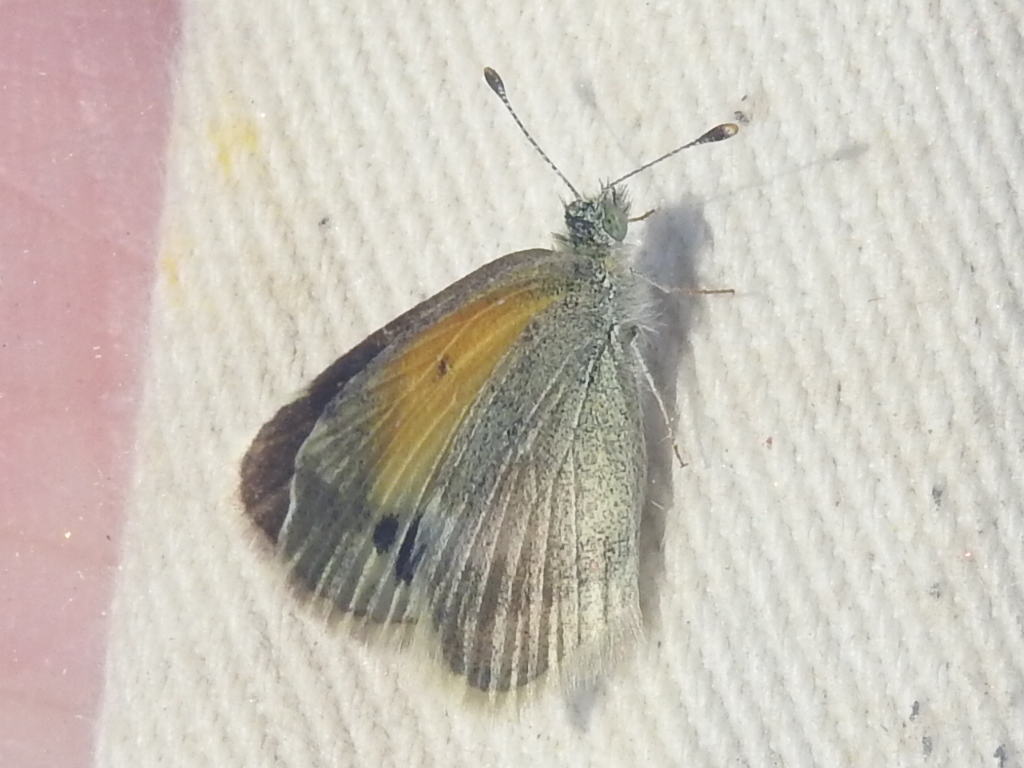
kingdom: Animalia
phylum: Arthropoda
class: Insecta
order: Lepidoptera
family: Pieridae
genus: Nathalis
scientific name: Nathalis iole
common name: Dainty sulphur
